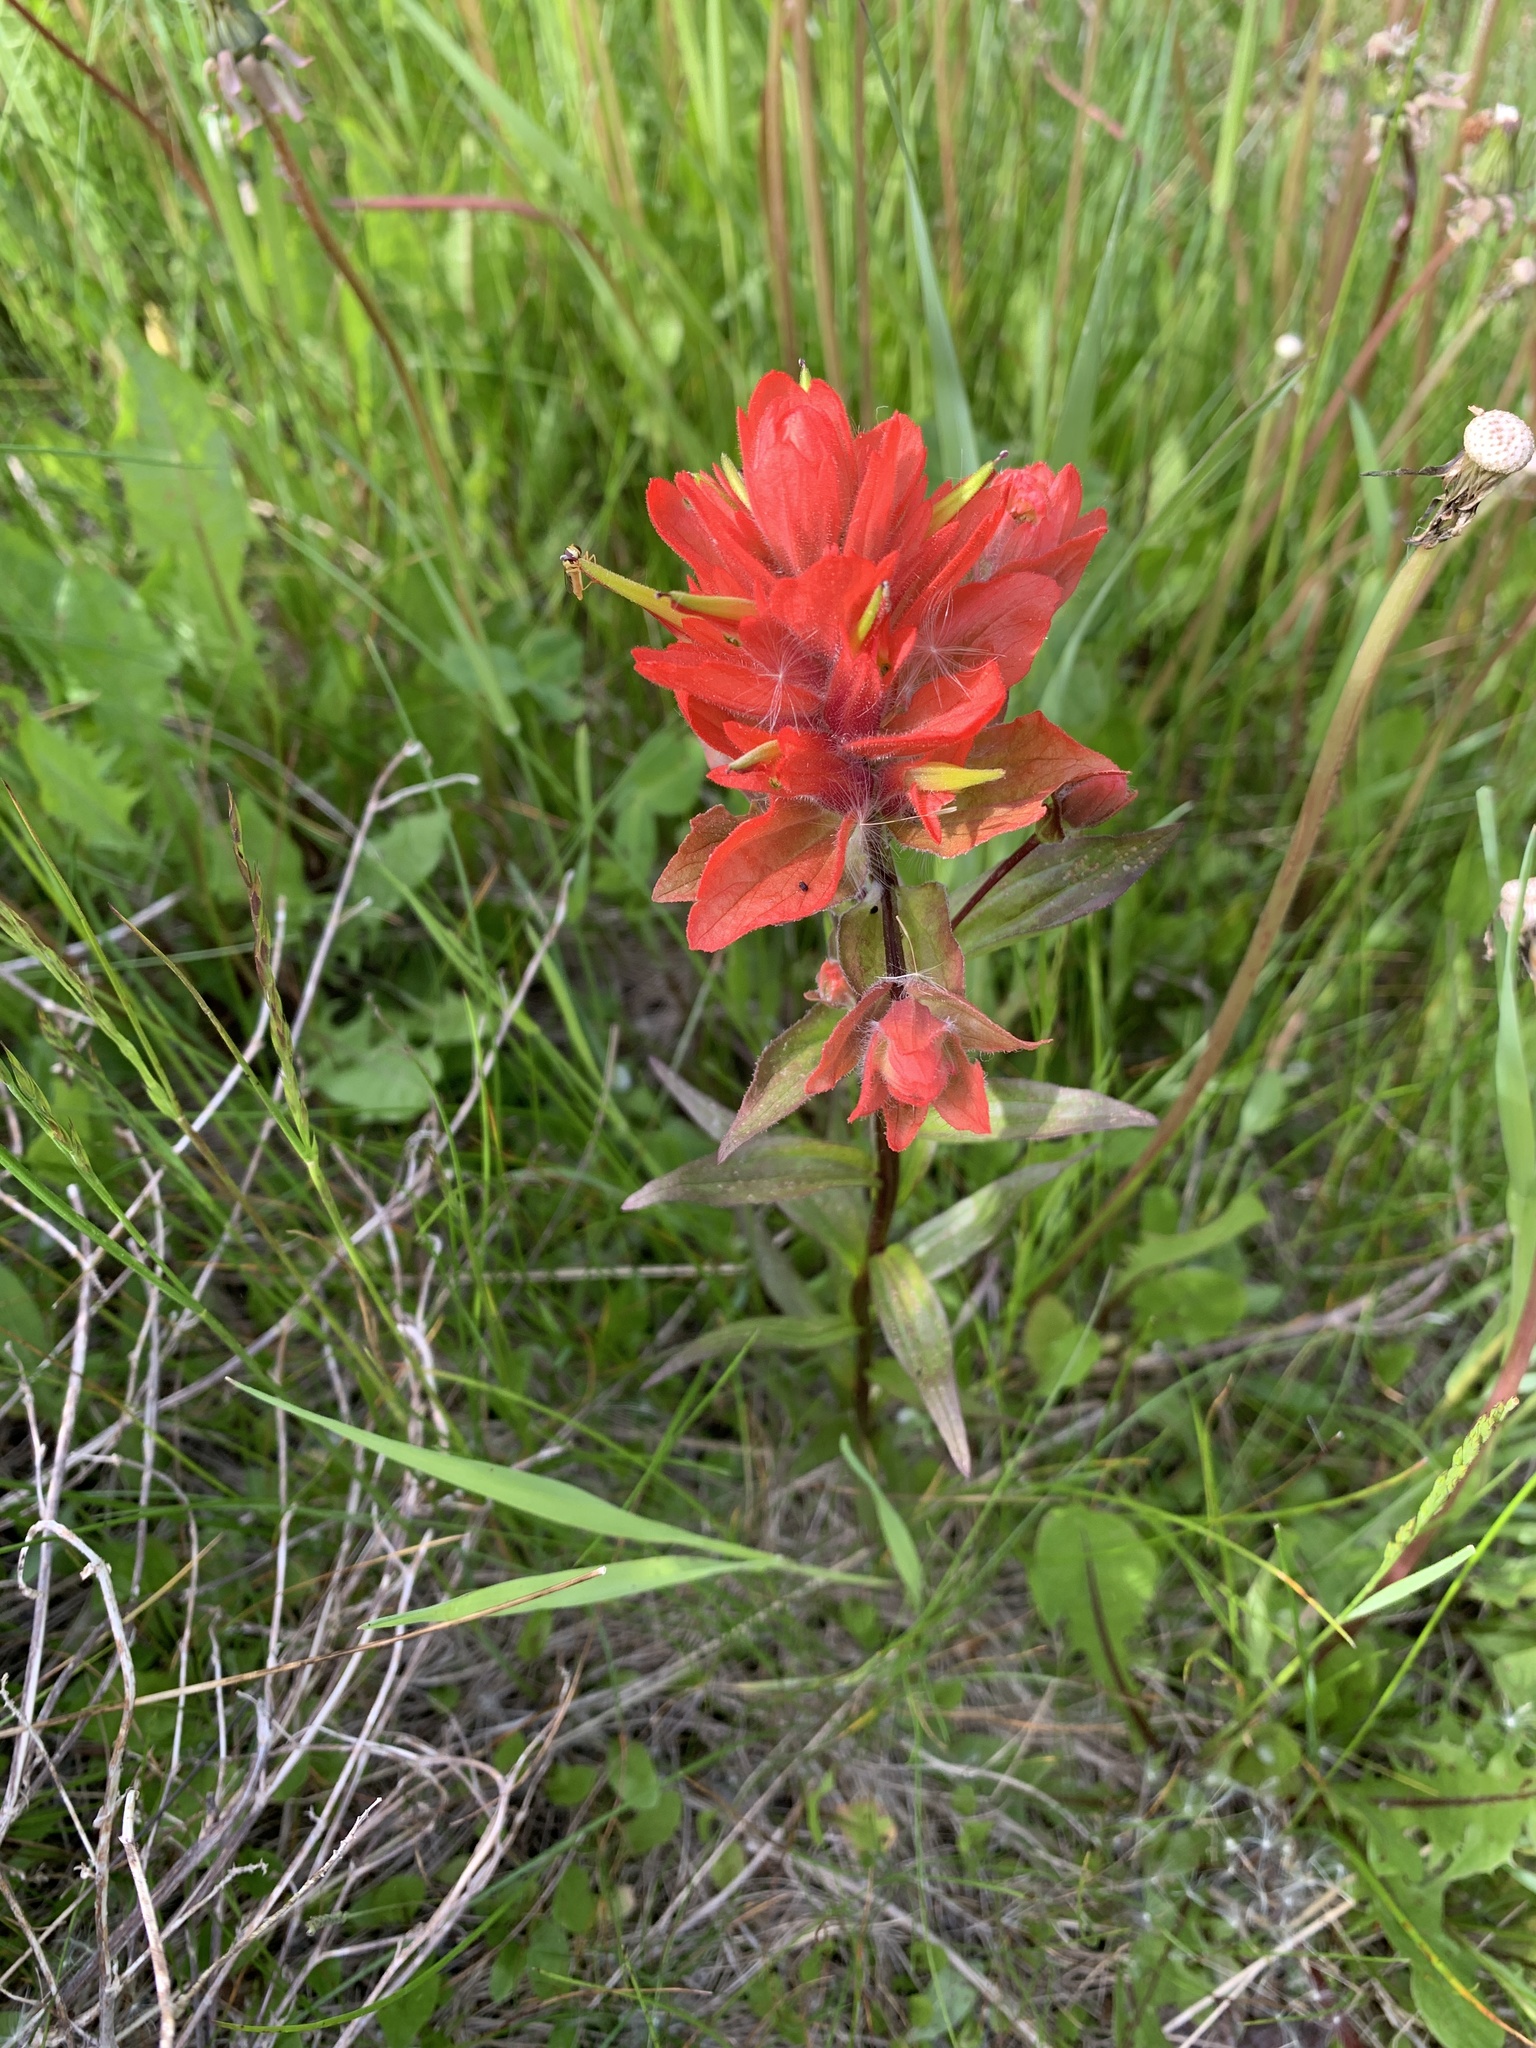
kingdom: Plantae
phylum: Tracheophyta
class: Magnoliopsida
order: Lamiales
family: Orobanchaceae
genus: Castilleja
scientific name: Castilleja miniata
